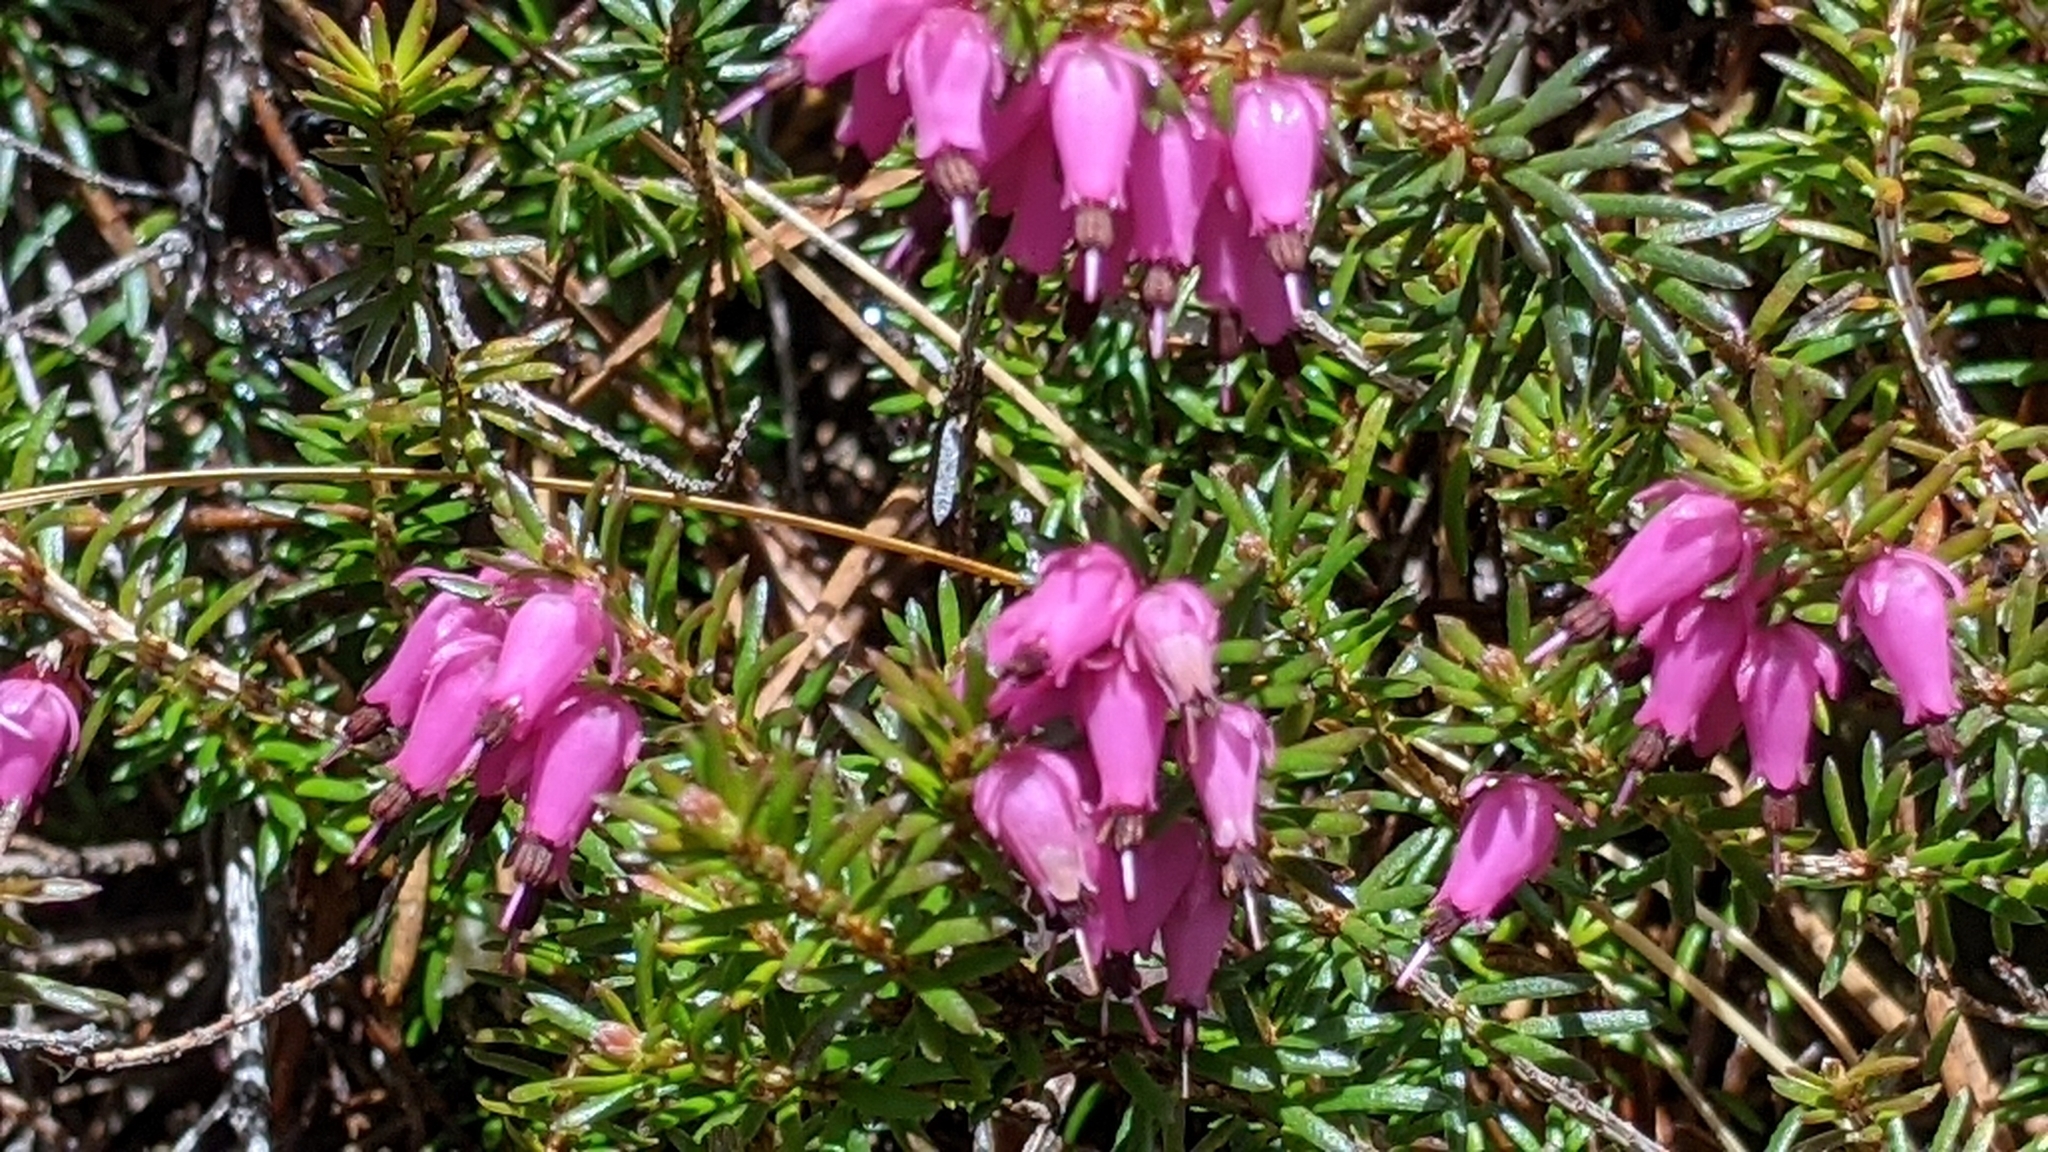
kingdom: Plantae
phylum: Tracheophyta
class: Magnoliopsida
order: Ericales
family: Ericaceae
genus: Erica
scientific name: Erica carnea
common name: Winter heath
